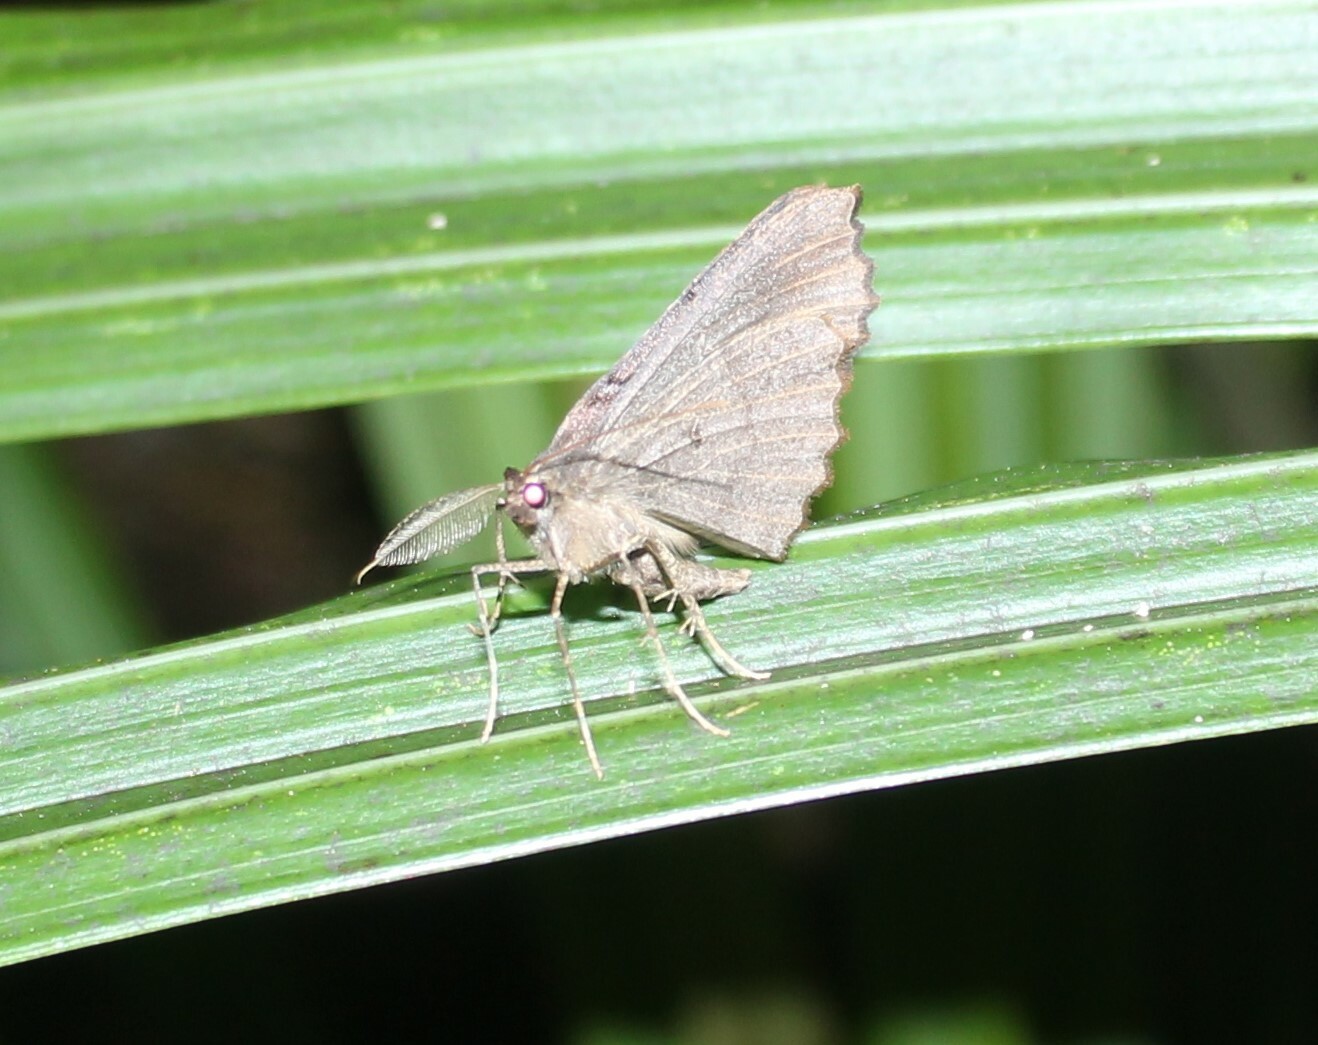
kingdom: Animalia
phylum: Arthropoda
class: Insecta
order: Lepidoptera
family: Geometridae
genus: Cleora
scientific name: Cleora scriptaria
